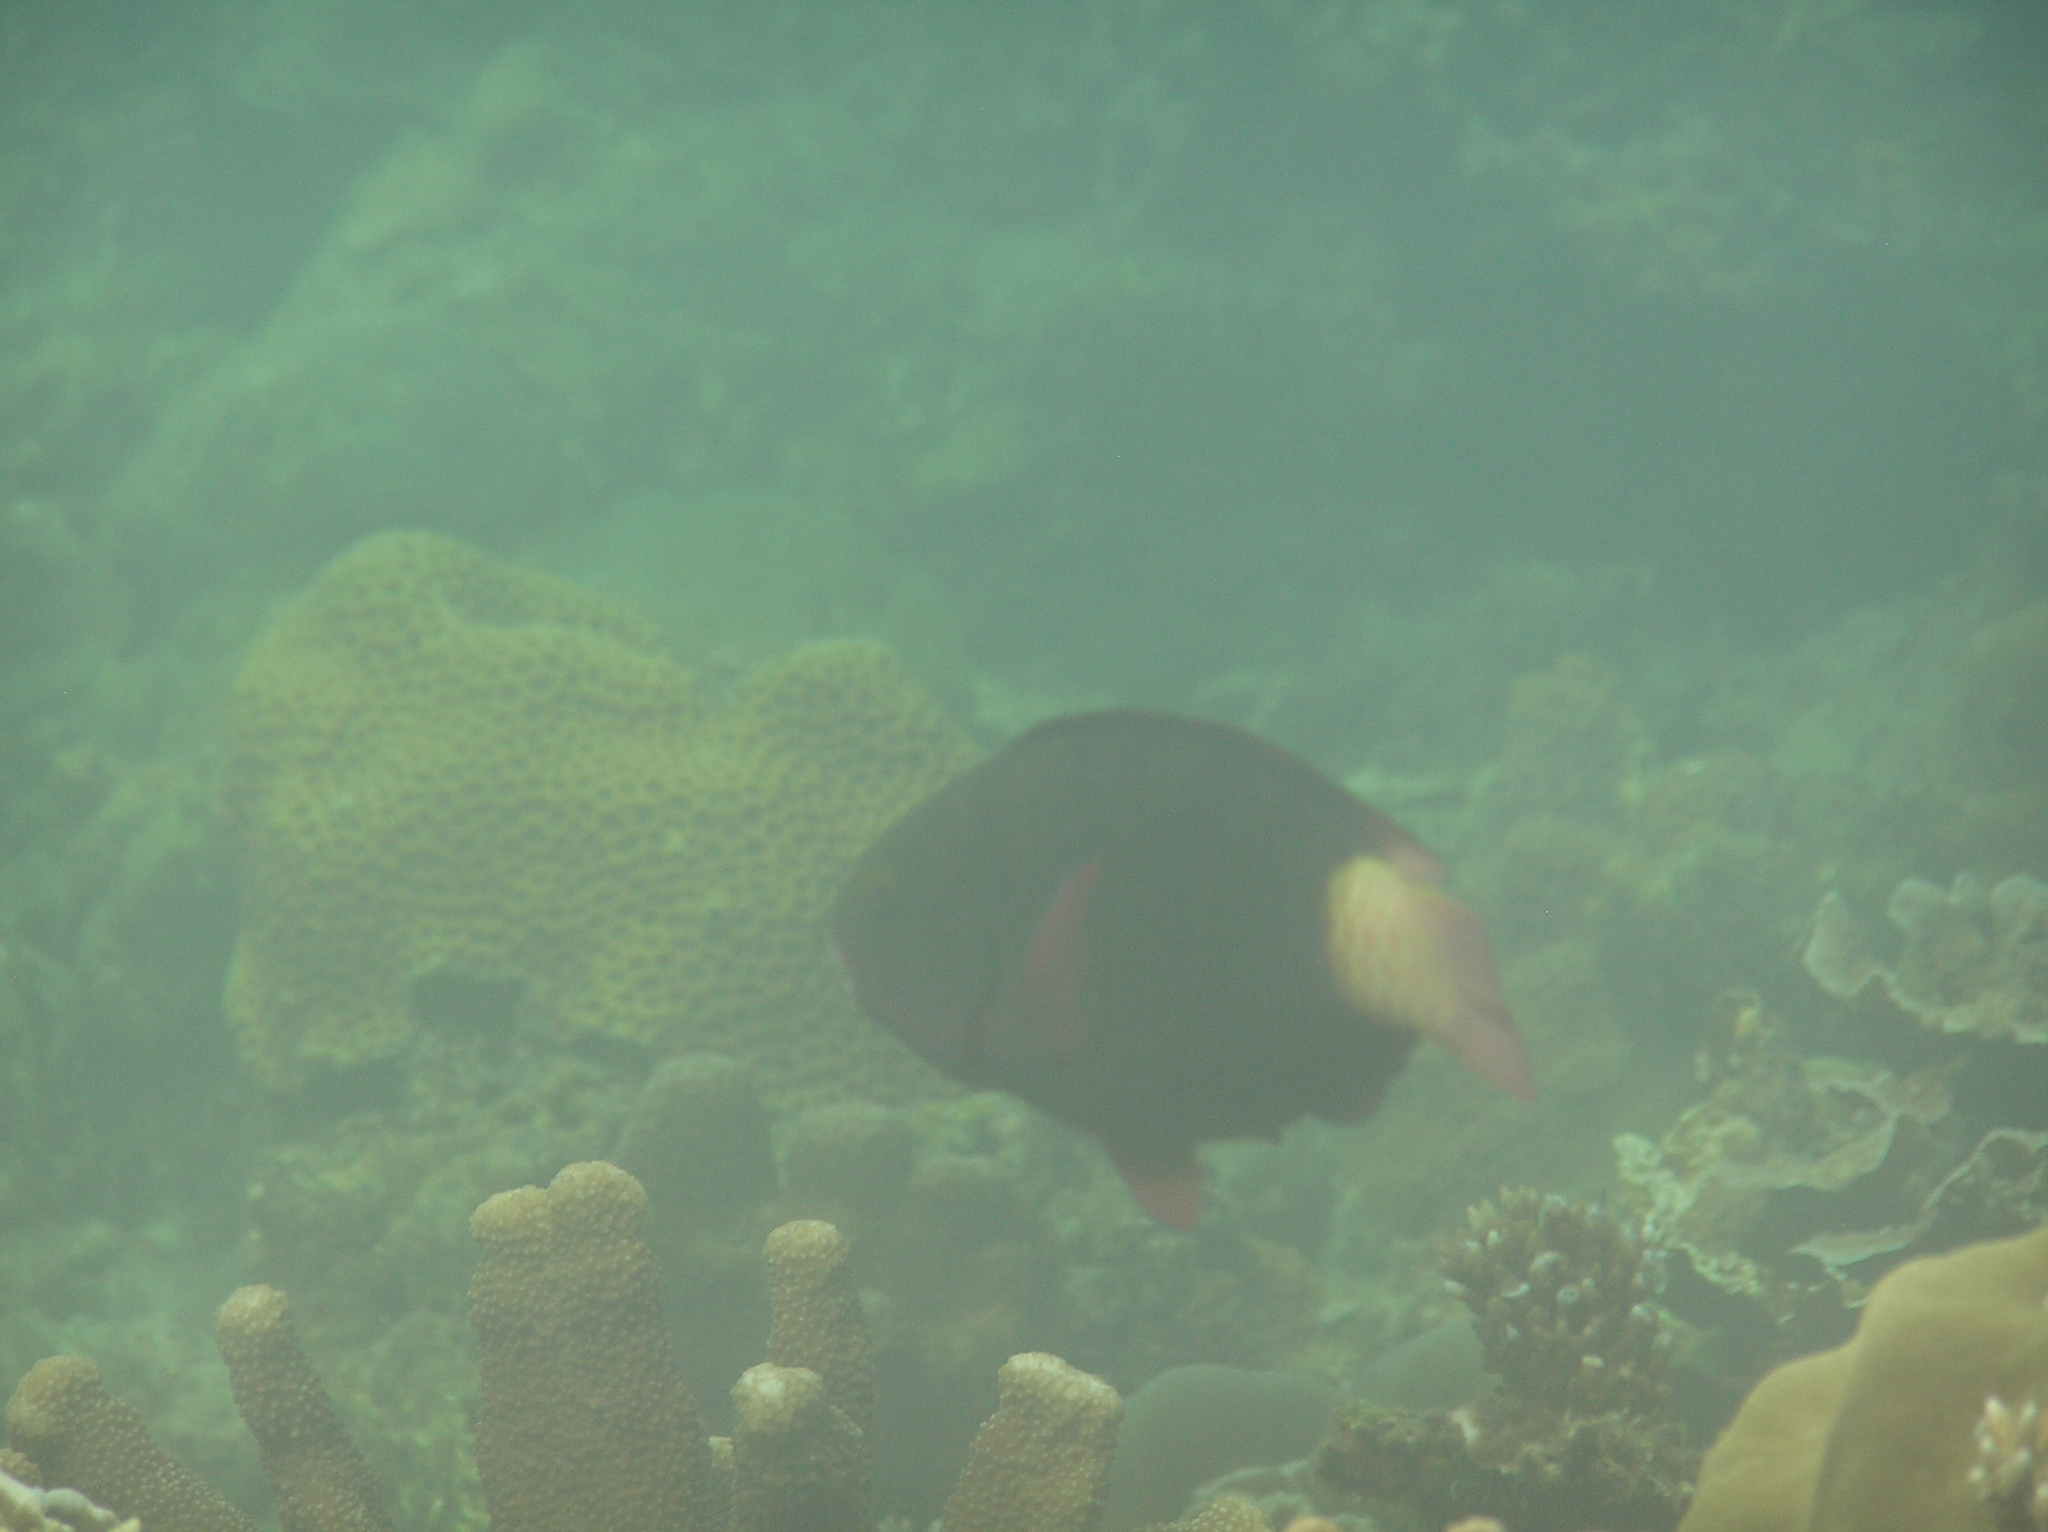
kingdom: Animalia
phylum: Chordata
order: Perciformes
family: Scaridae
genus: Chlorurus
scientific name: Chlorurus bleekeri
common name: Bleeker's parrotfish
